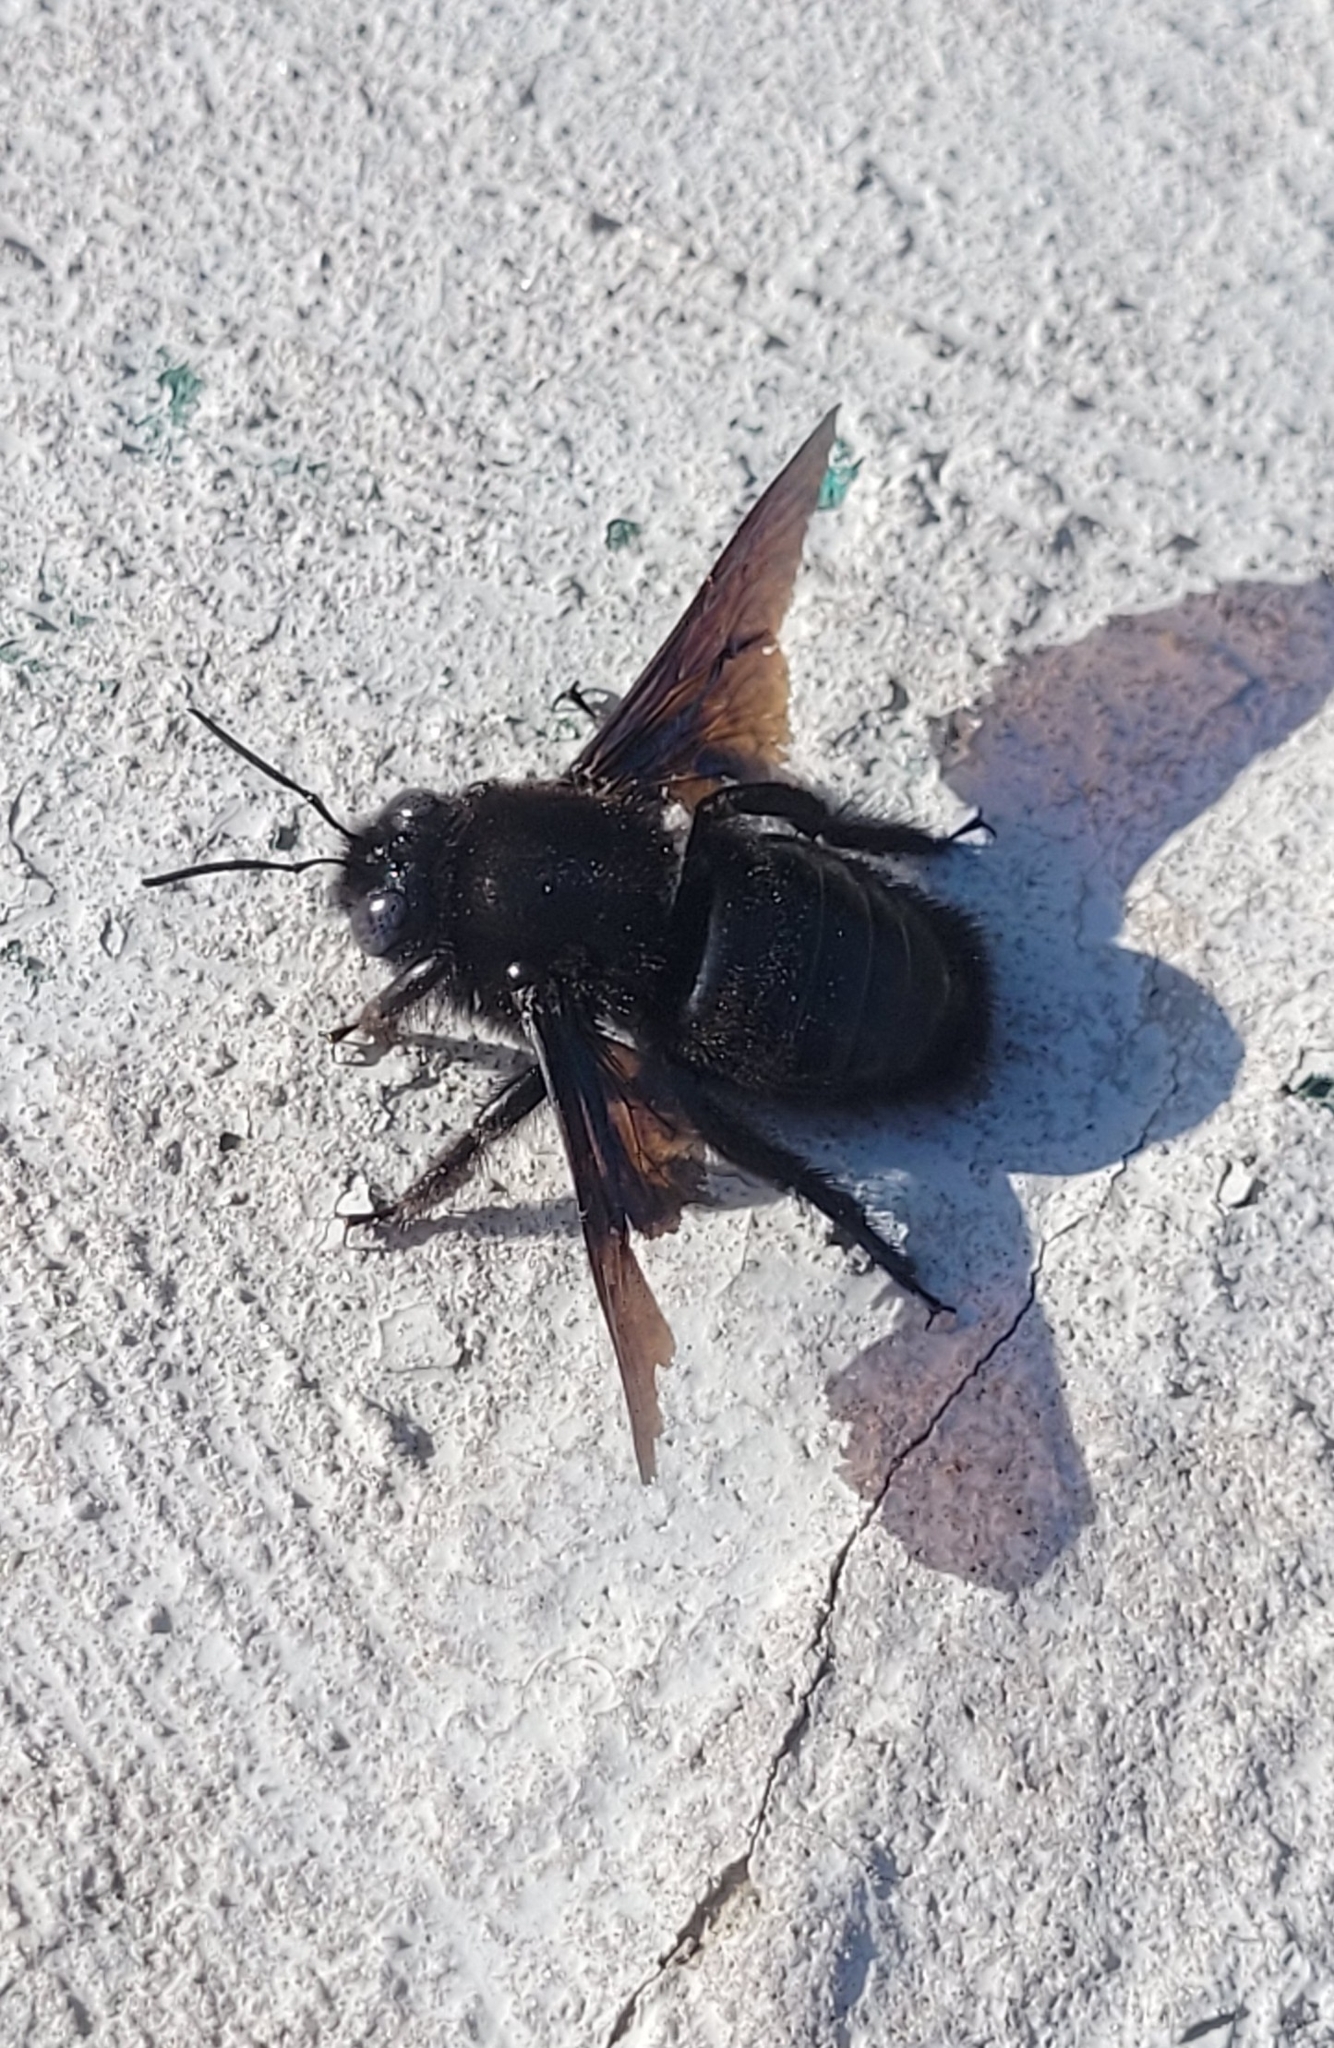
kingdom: Animalia
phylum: Arthropoda
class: Insecta
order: Hymenoptera
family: Apidae
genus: Xylocopa
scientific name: Xylocopa valga
